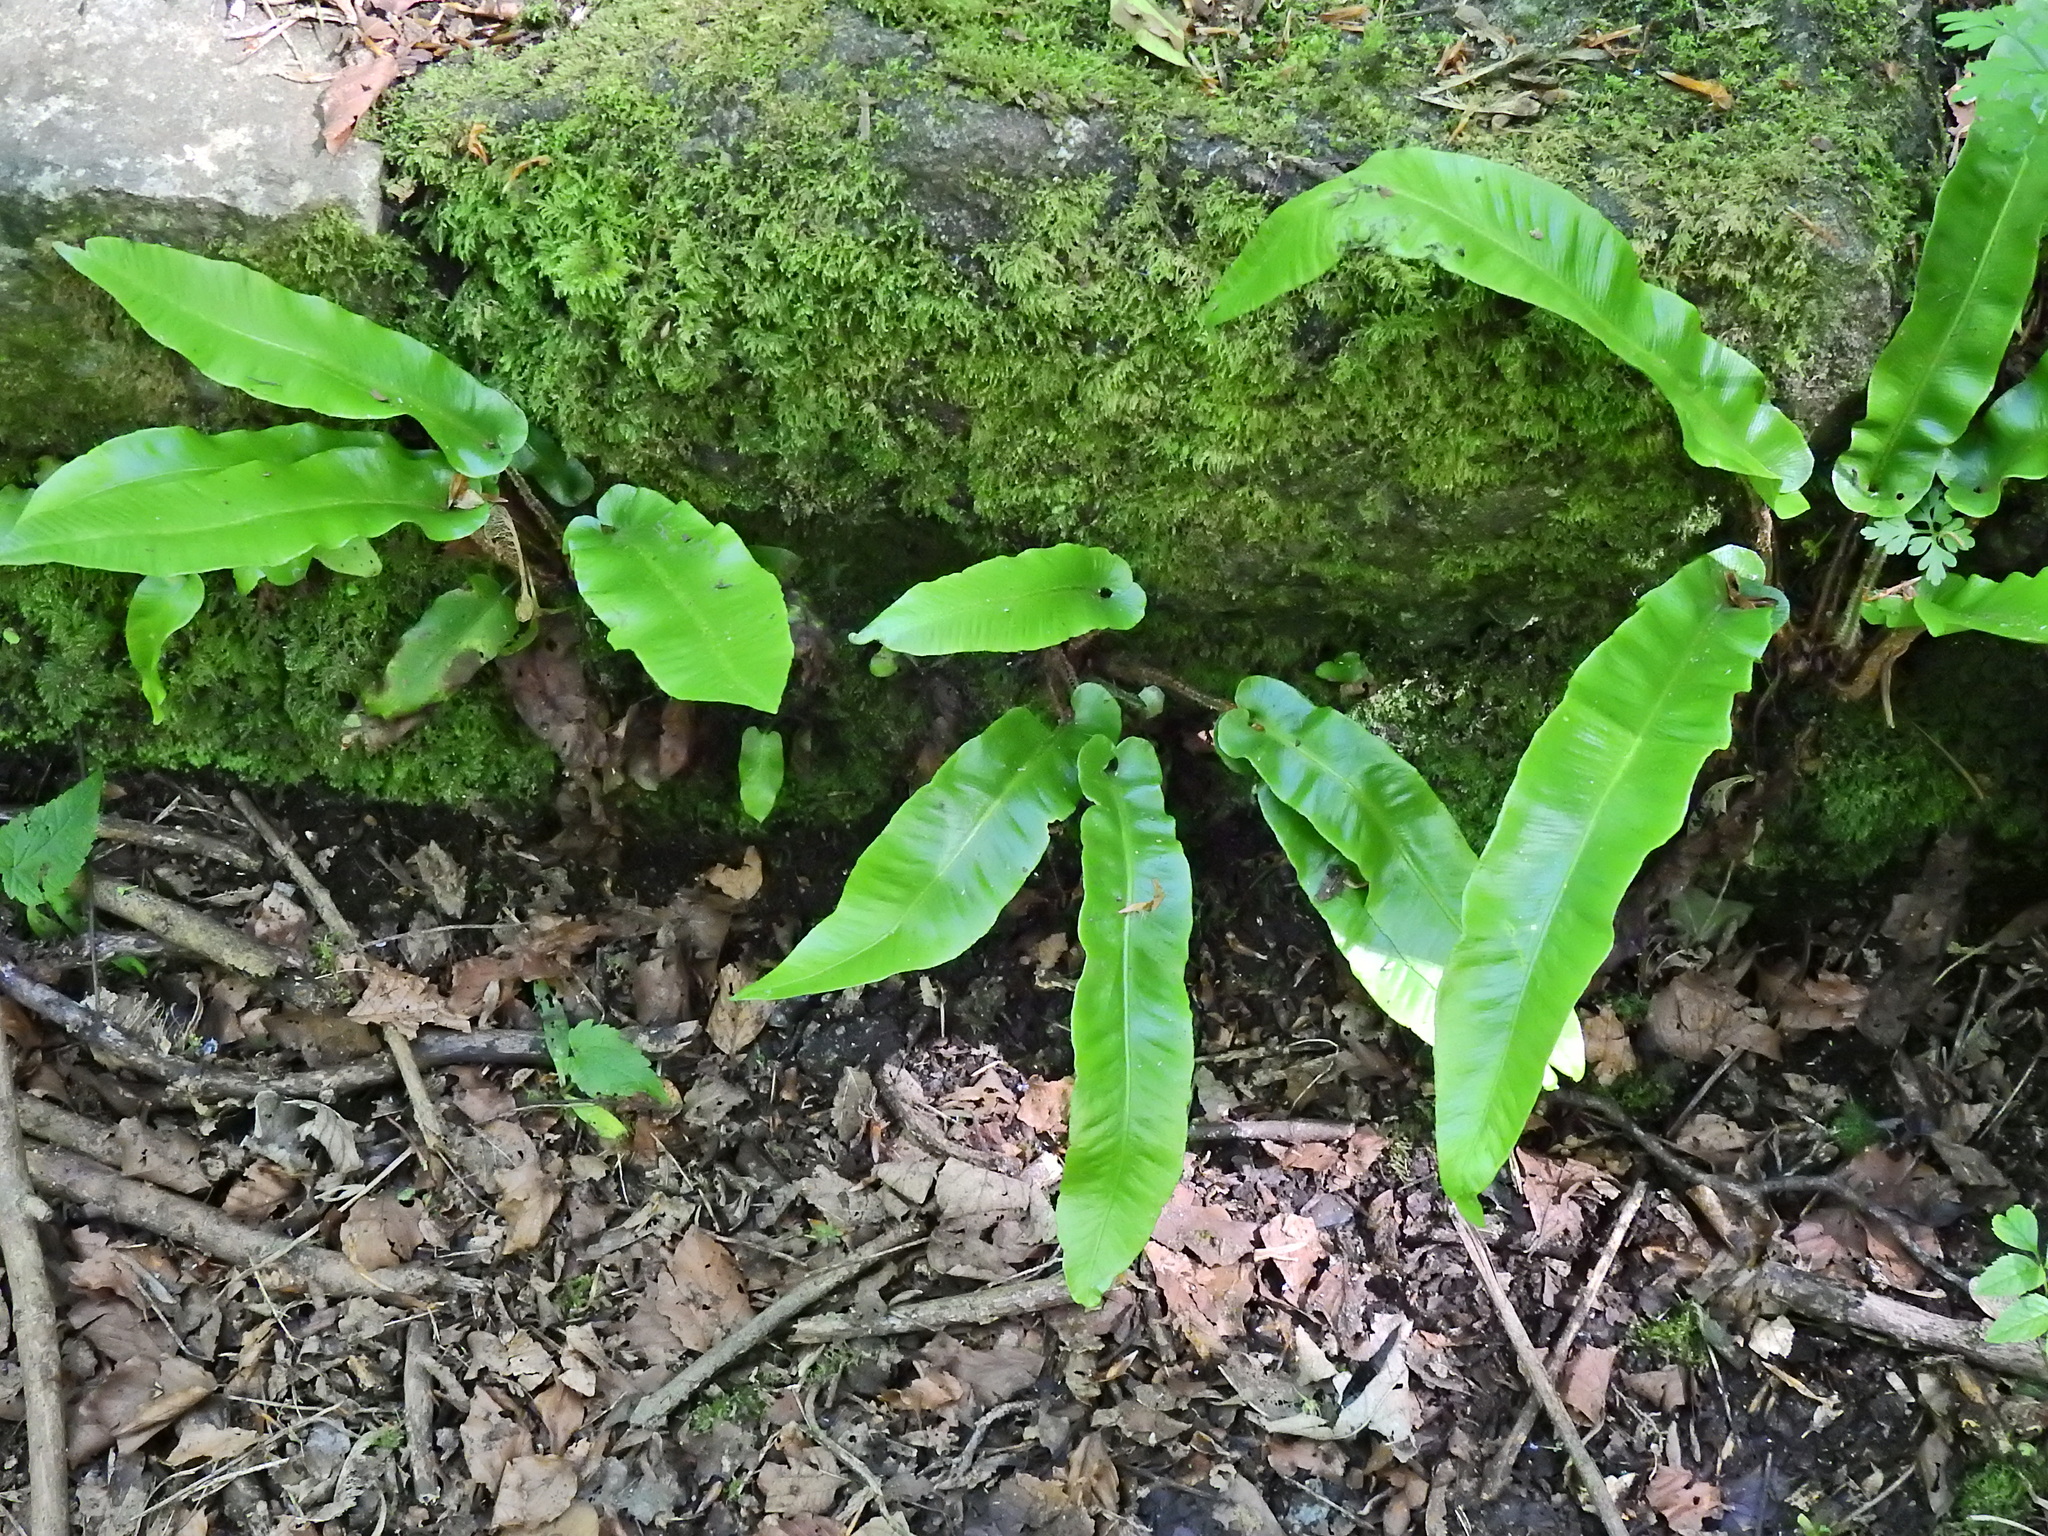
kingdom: Plantae
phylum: Tracheophyta
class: Polypodiopsida
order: Polypodiales
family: Aspleniaceae
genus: Asplenium
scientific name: Asplenium scolopendrium
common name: Hart's-tongue fern
